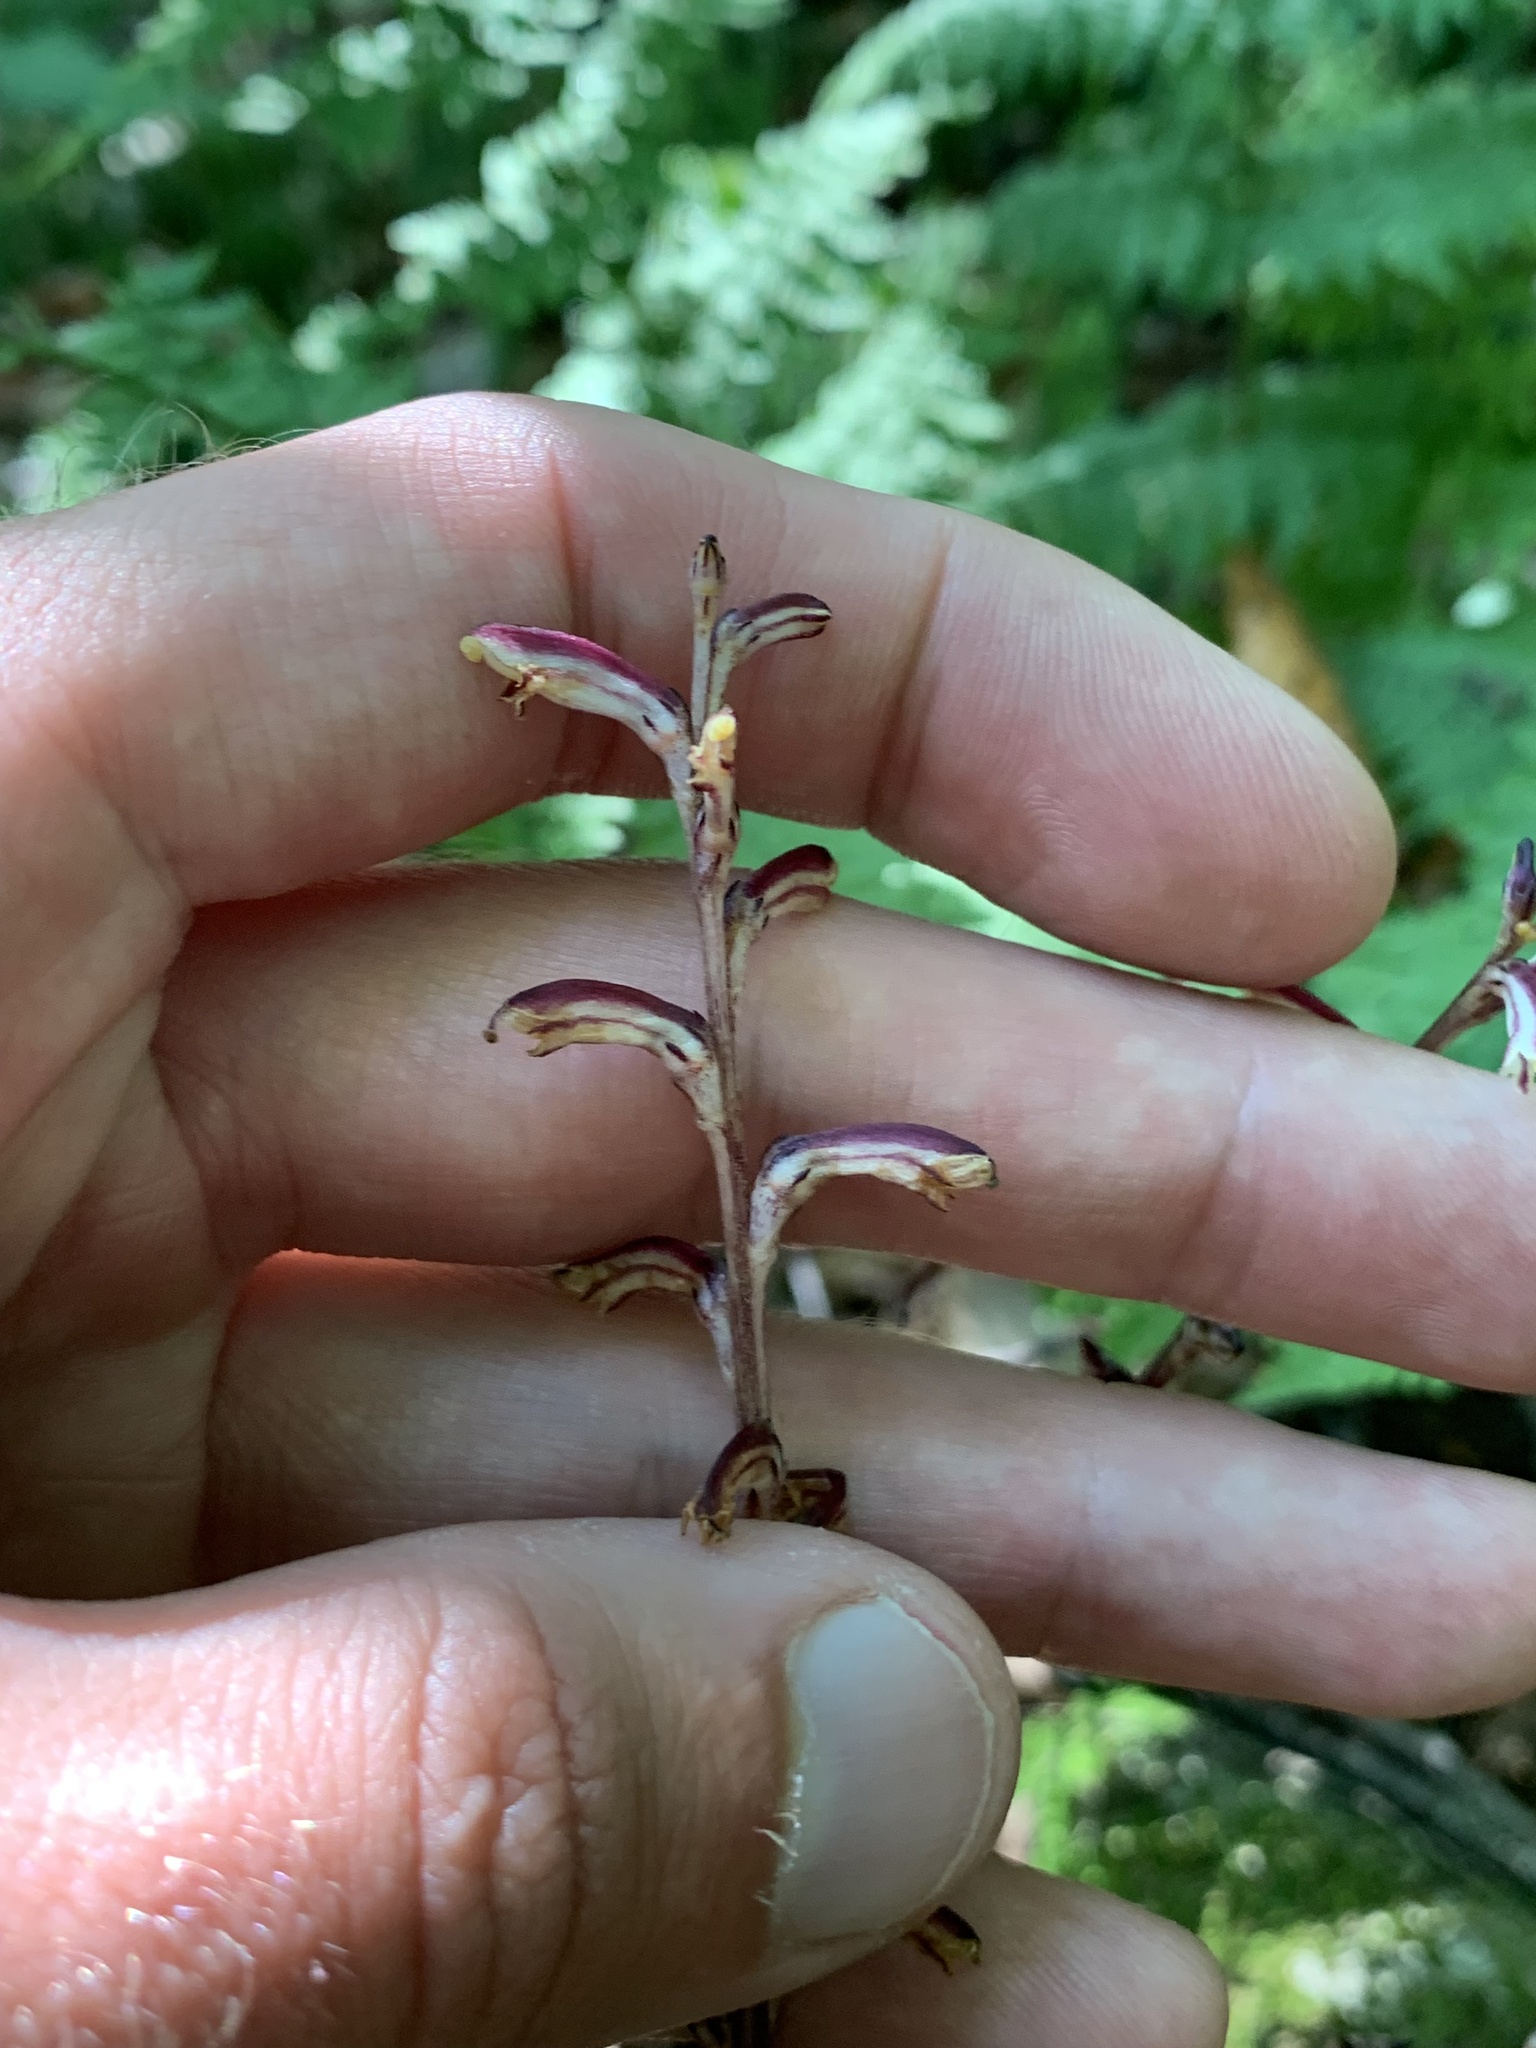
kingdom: Plantae
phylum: Tracheophyta
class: Magnoliopsida
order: Lamiales
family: Orobanchaceae
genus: Epifagus
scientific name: Epifagus virginiana
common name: Beechdrops
